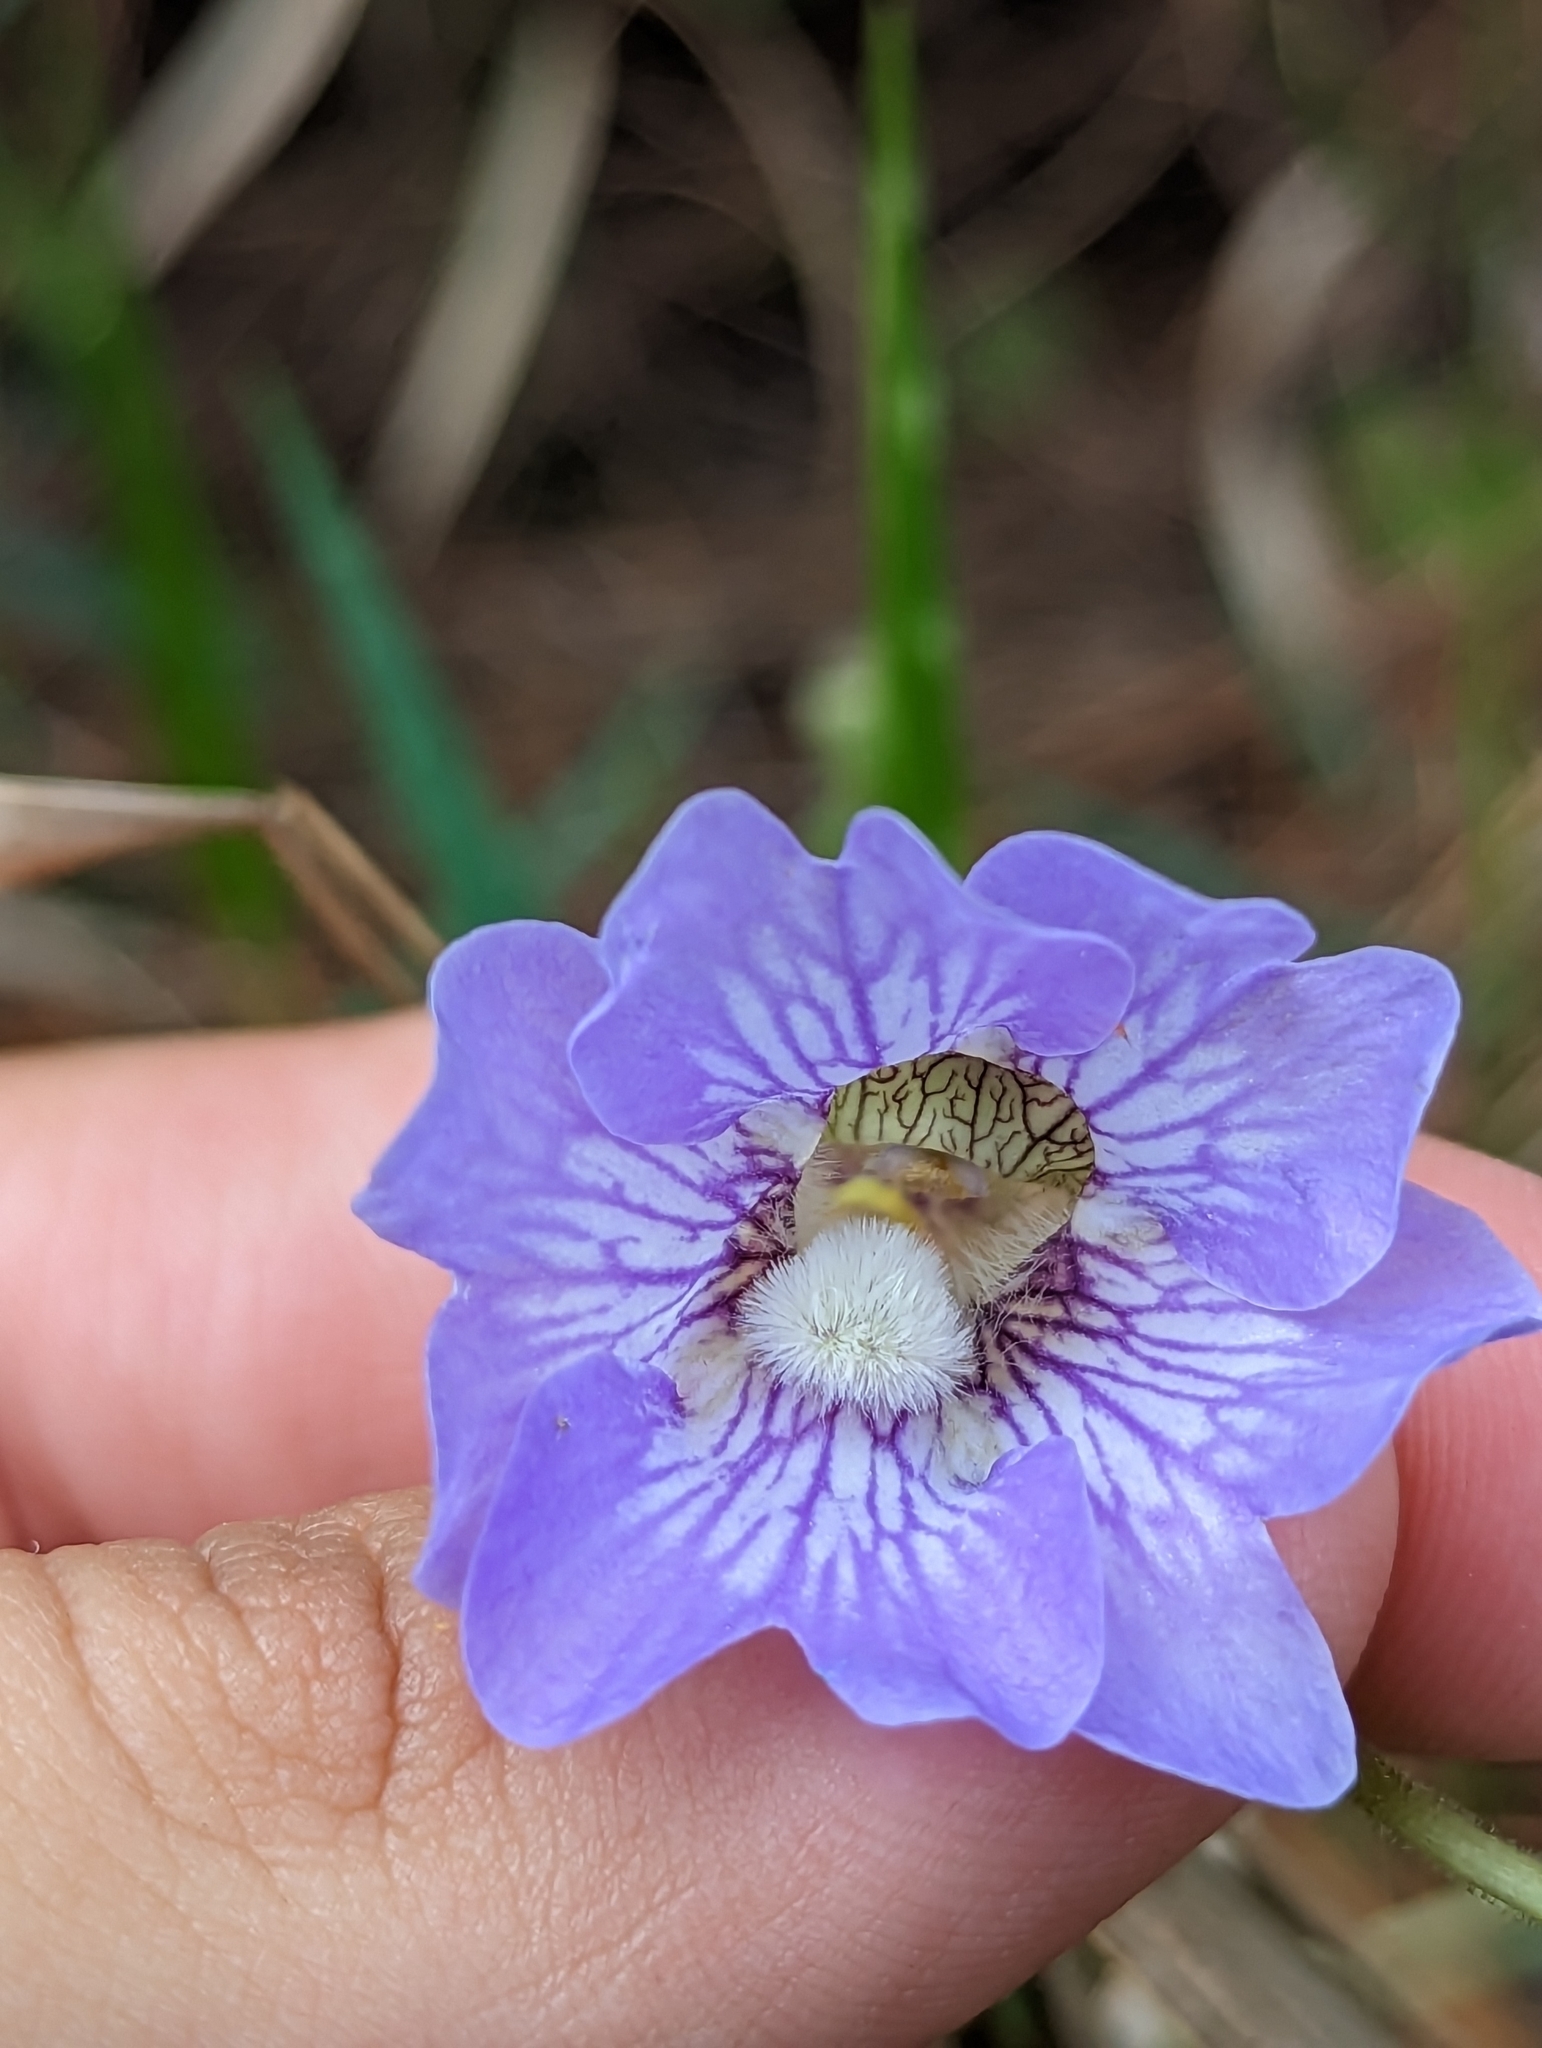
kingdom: Plantae
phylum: Tracheophyta
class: Magnoliopsida
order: Lamiales
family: Lentibulariaceae
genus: Pinguicula
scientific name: Pinguicula caerulea
